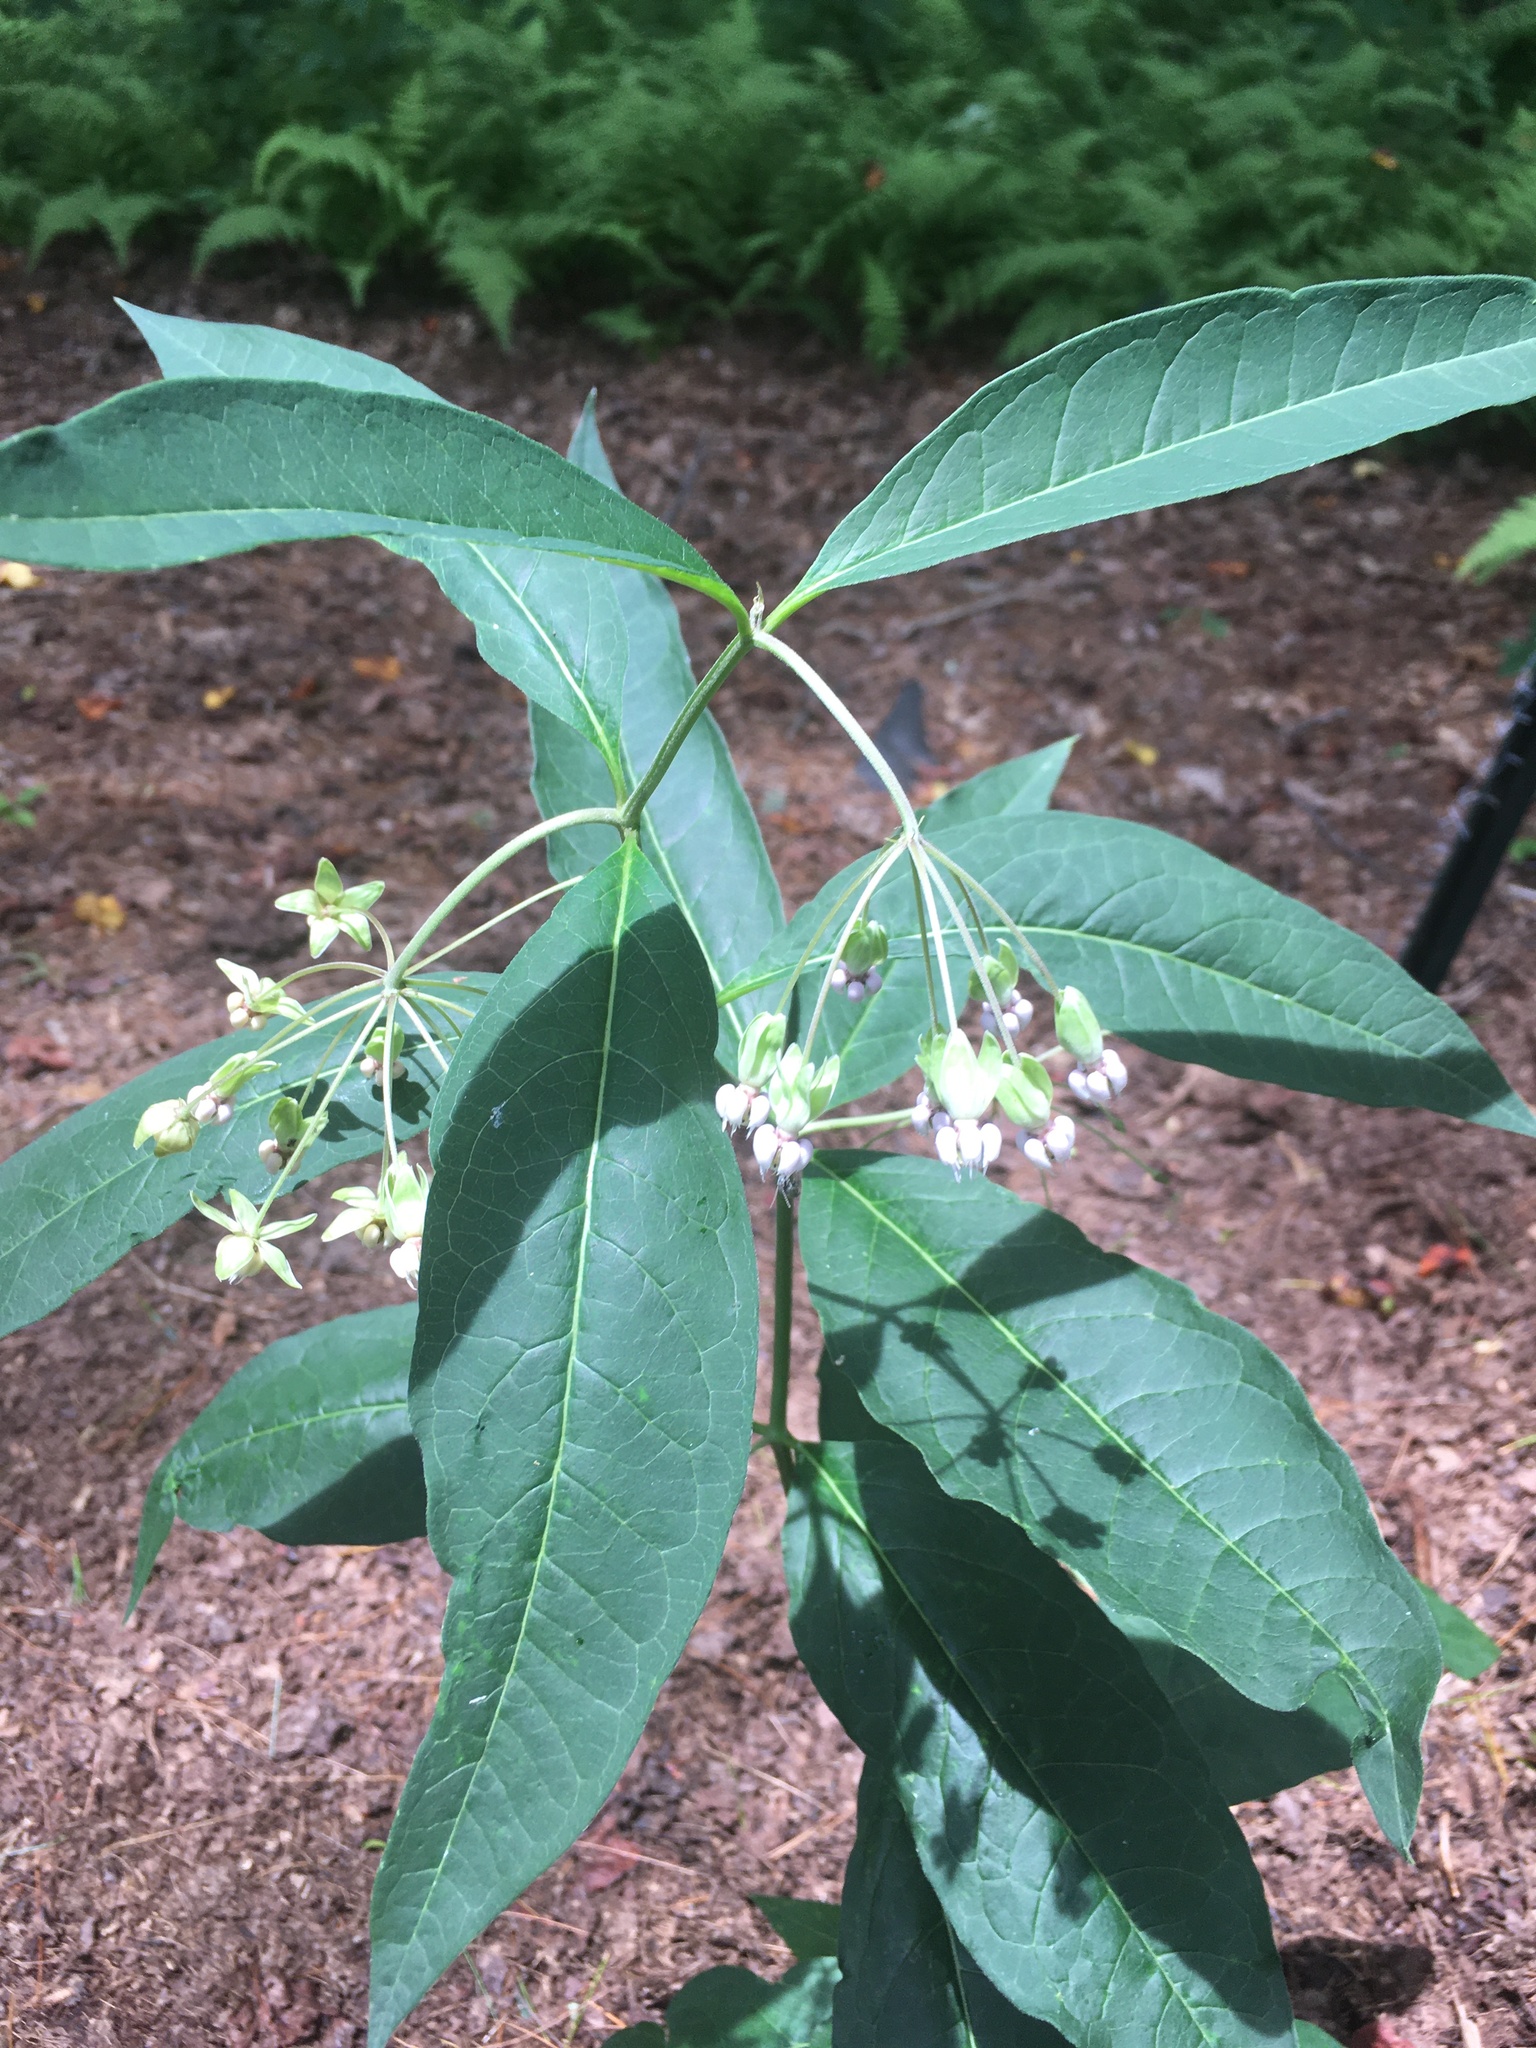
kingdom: Plantae
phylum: Tracheophyta
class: Magnoliopsida
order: Gentianales
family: Apocynaceae
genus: Asclepias
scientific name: Asclepias exaltata
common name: Poke milkweed
